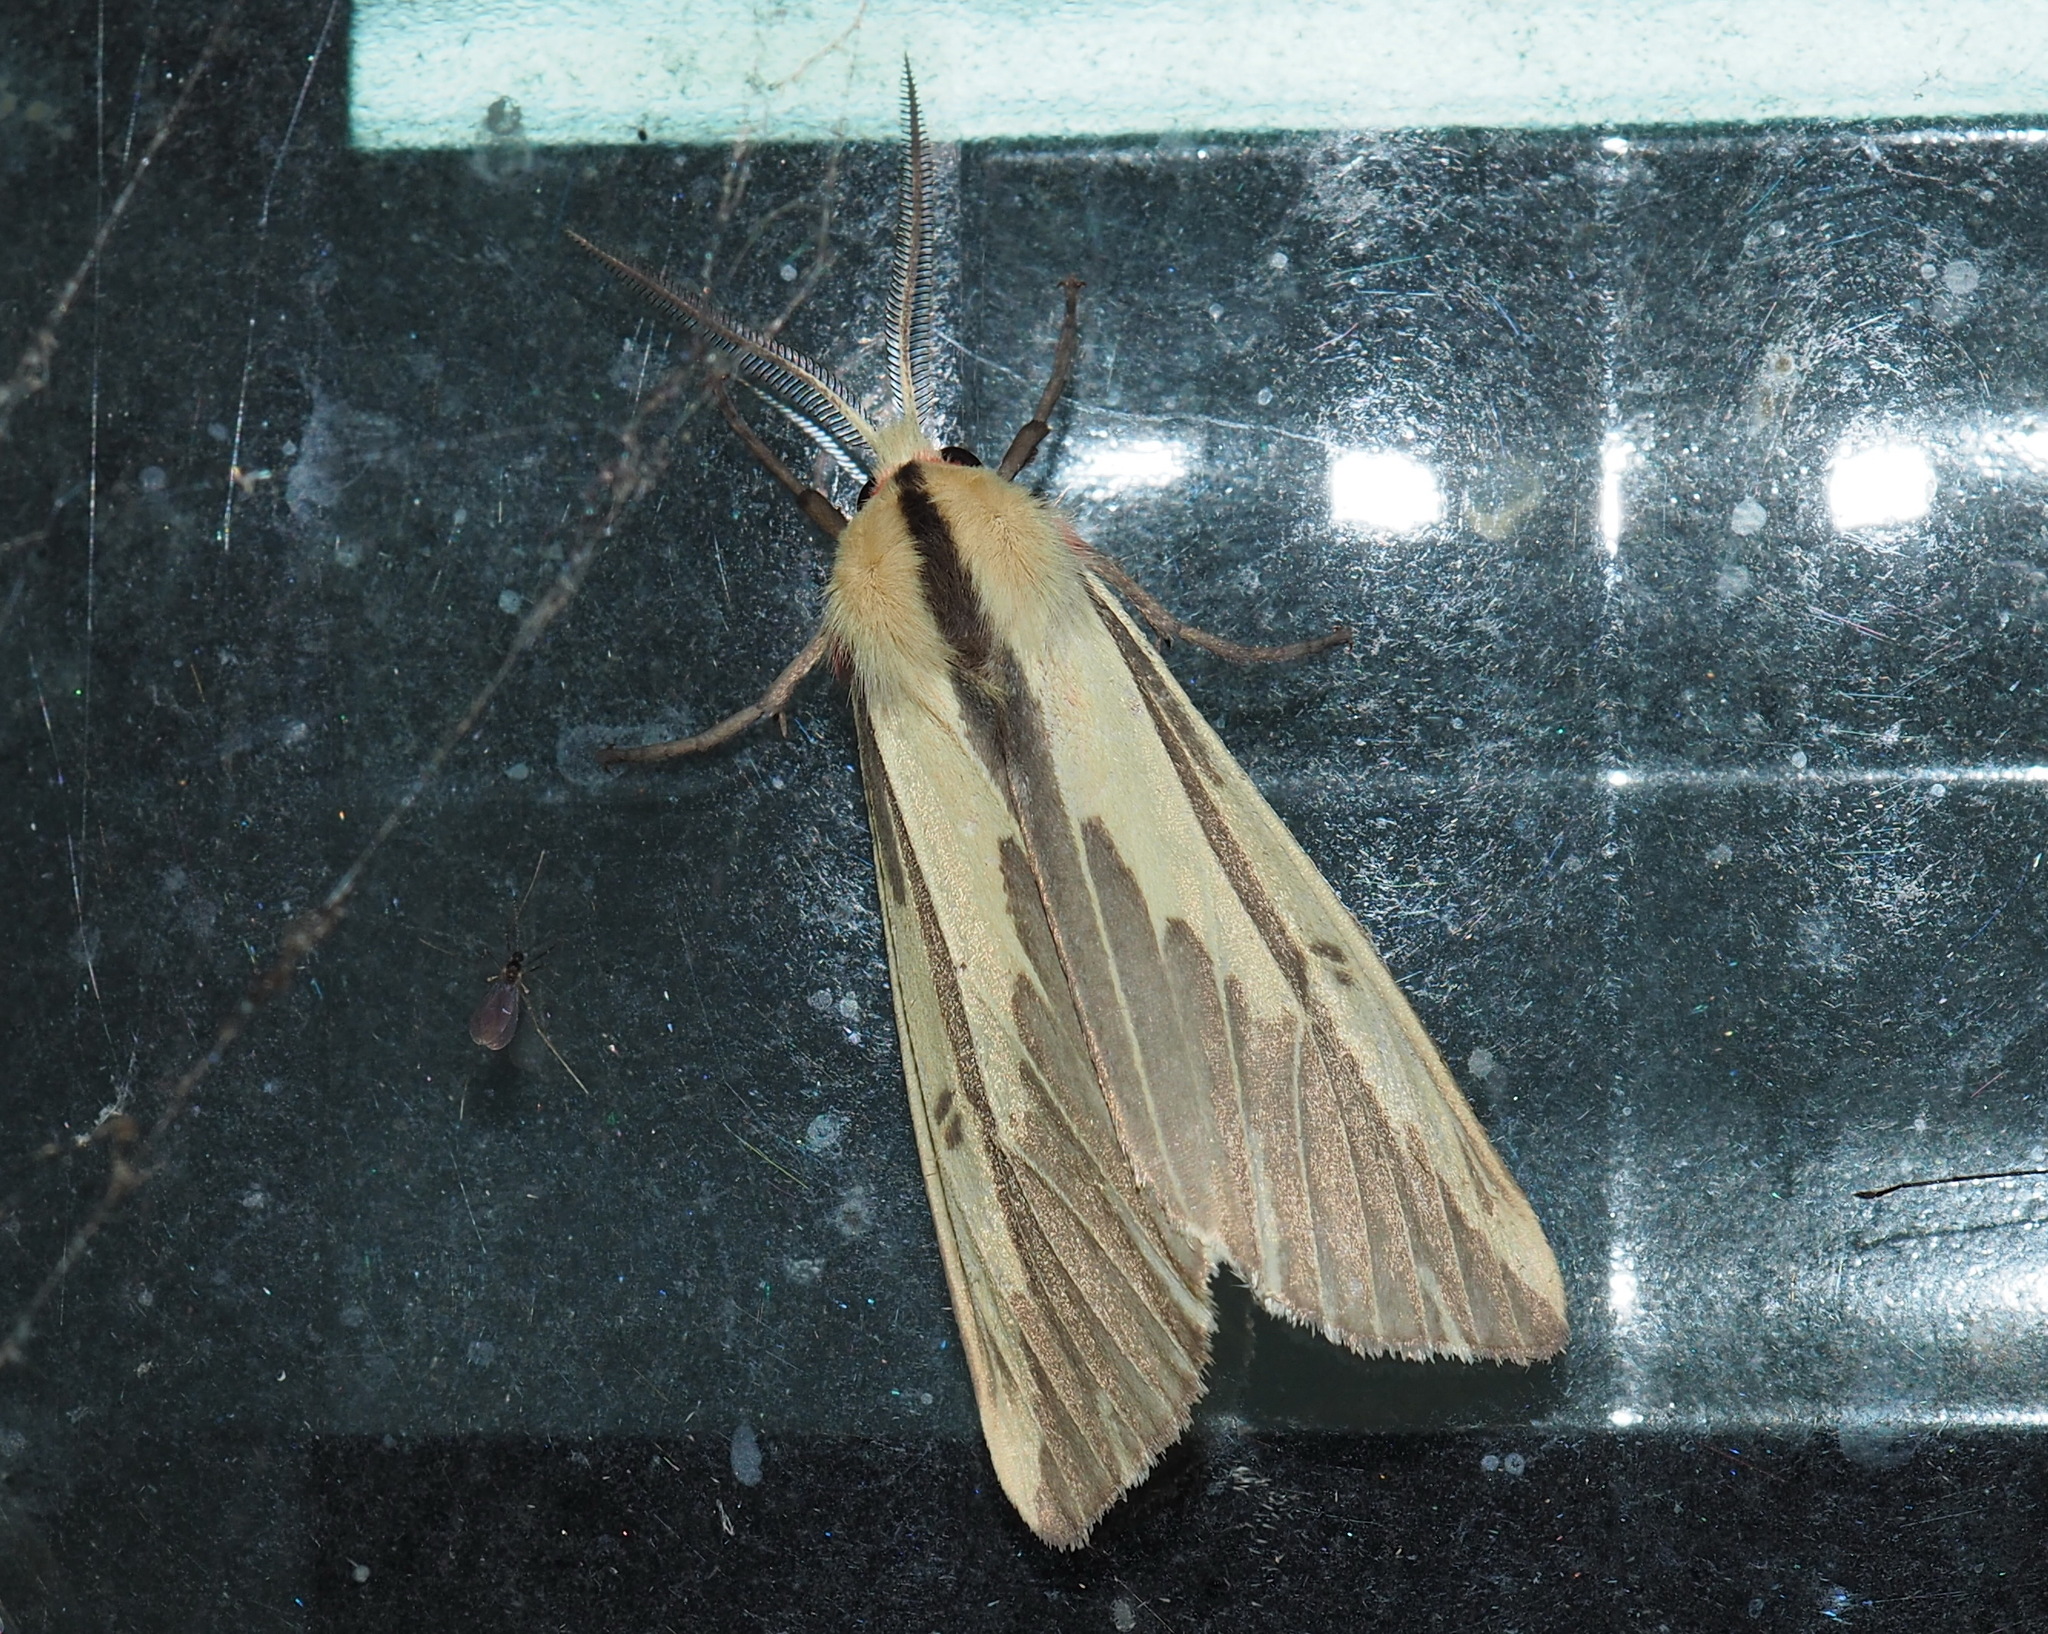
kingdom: Animalia
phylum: Arthropoda
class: Insecta
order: Lepidoptera
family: Erebidae
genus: Eospilarctia
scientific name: Eospilarctia nehallenia
